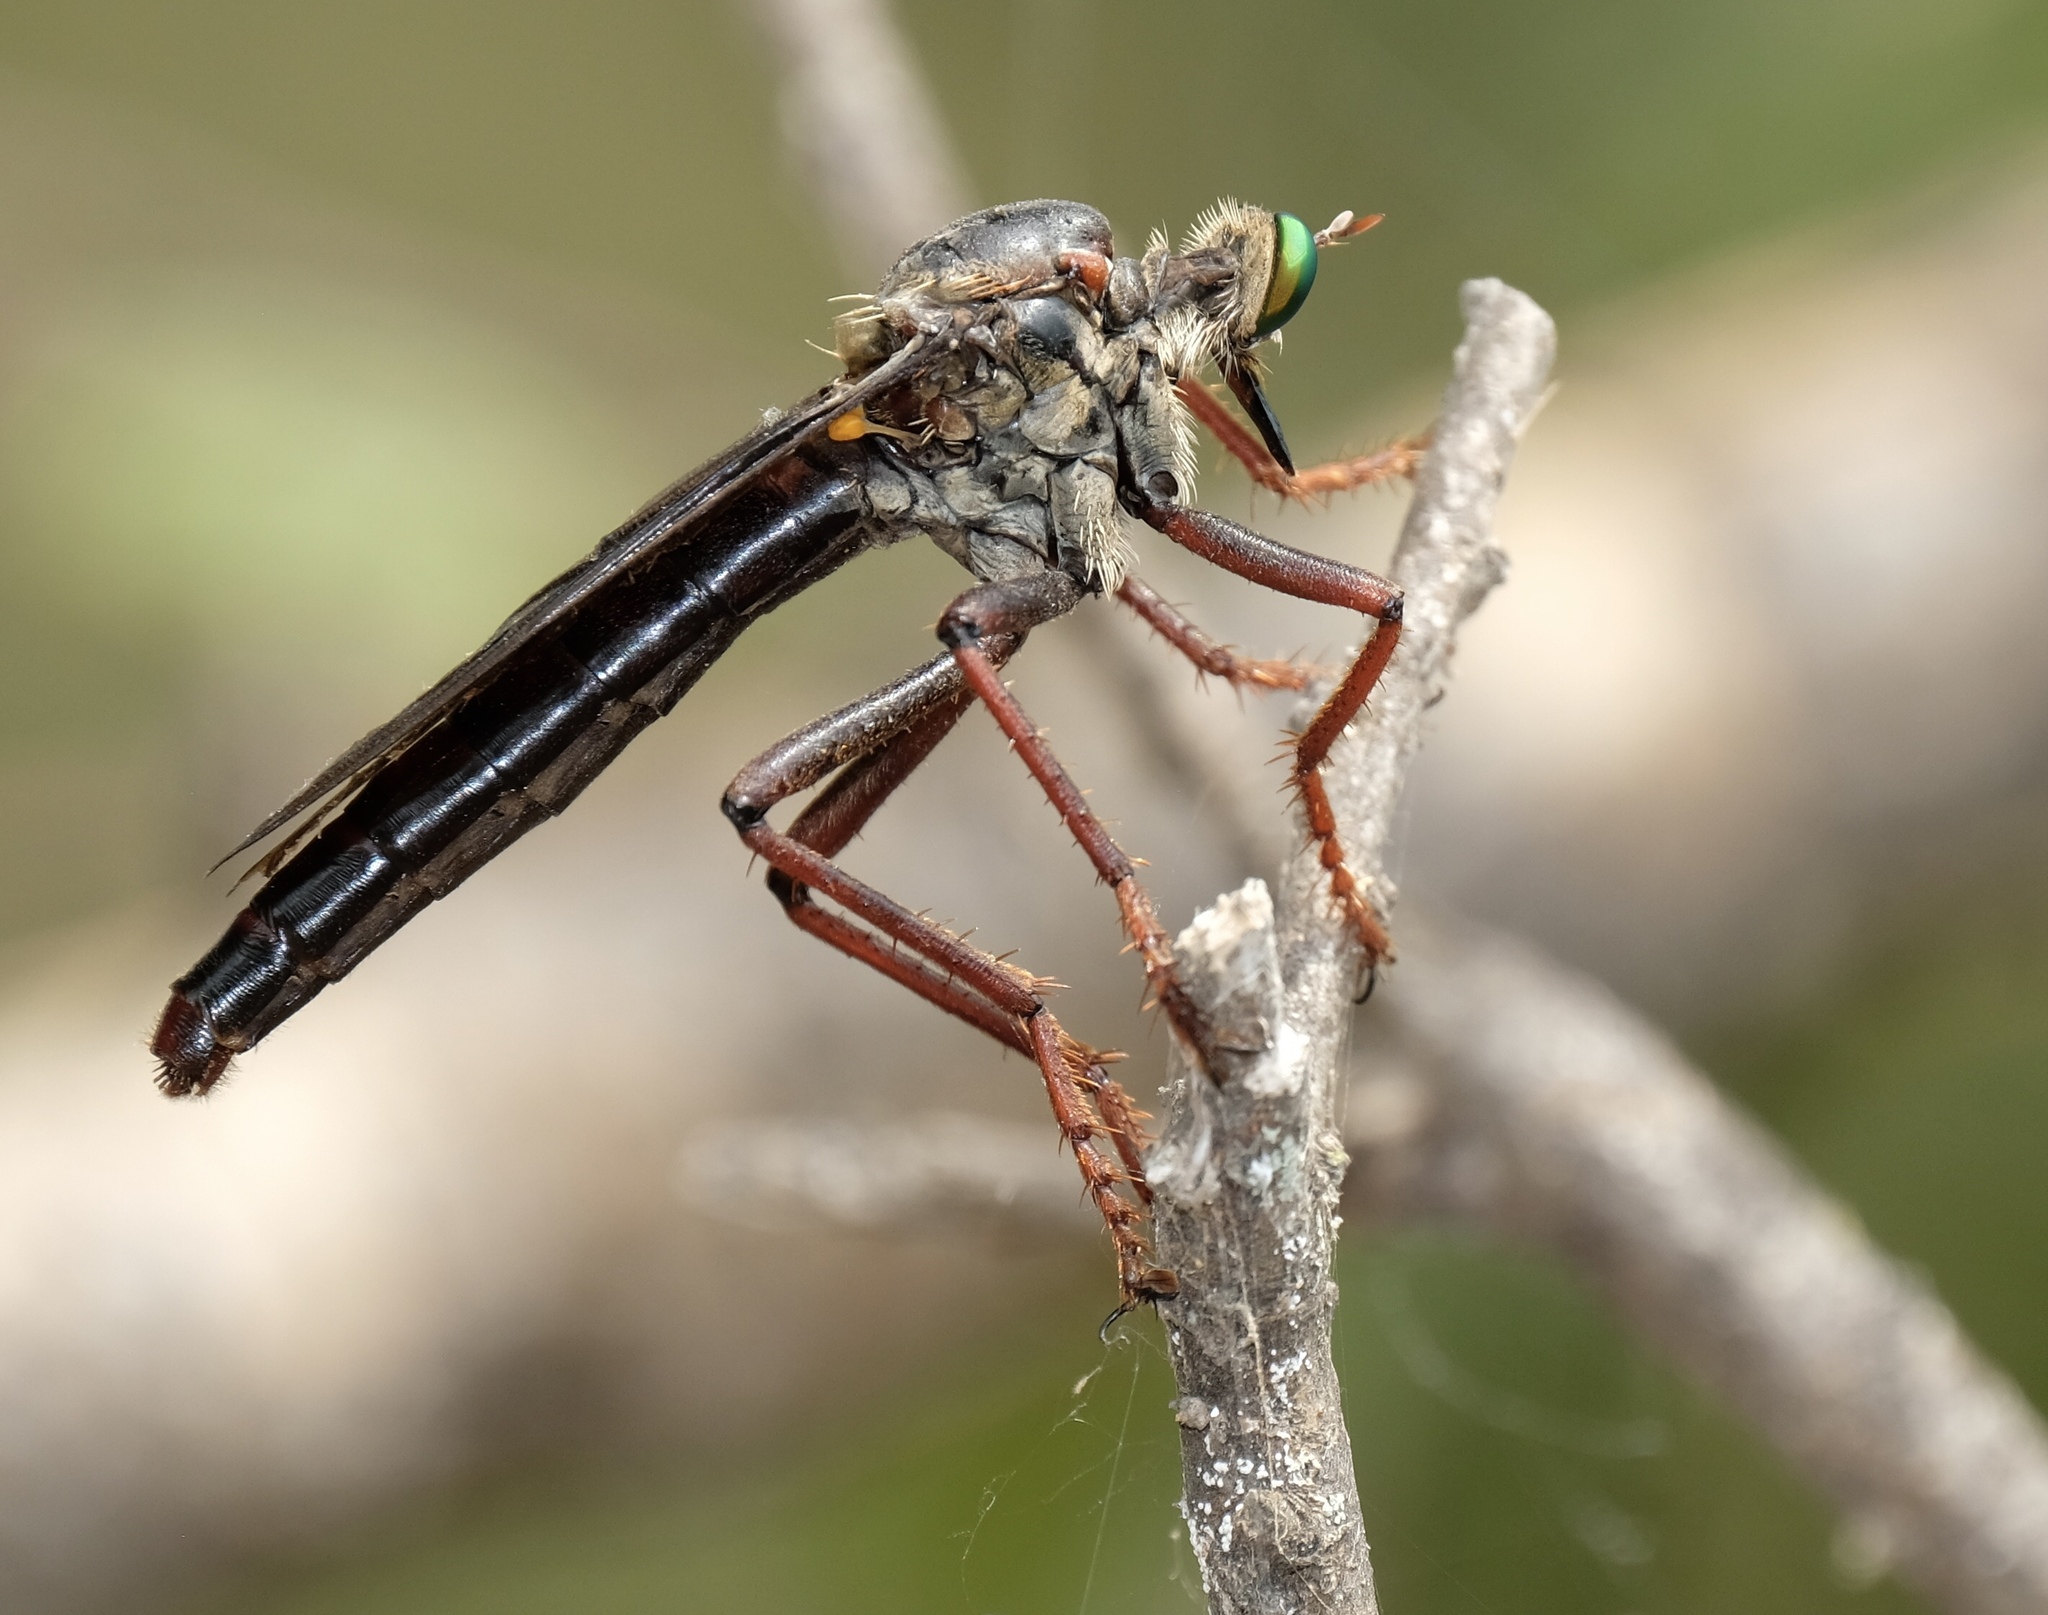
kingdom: Animalia
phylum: Arthropoda
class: Insecta
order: Diptera
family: Asilidae
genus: Microstylum
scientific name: Microstylum morosum
